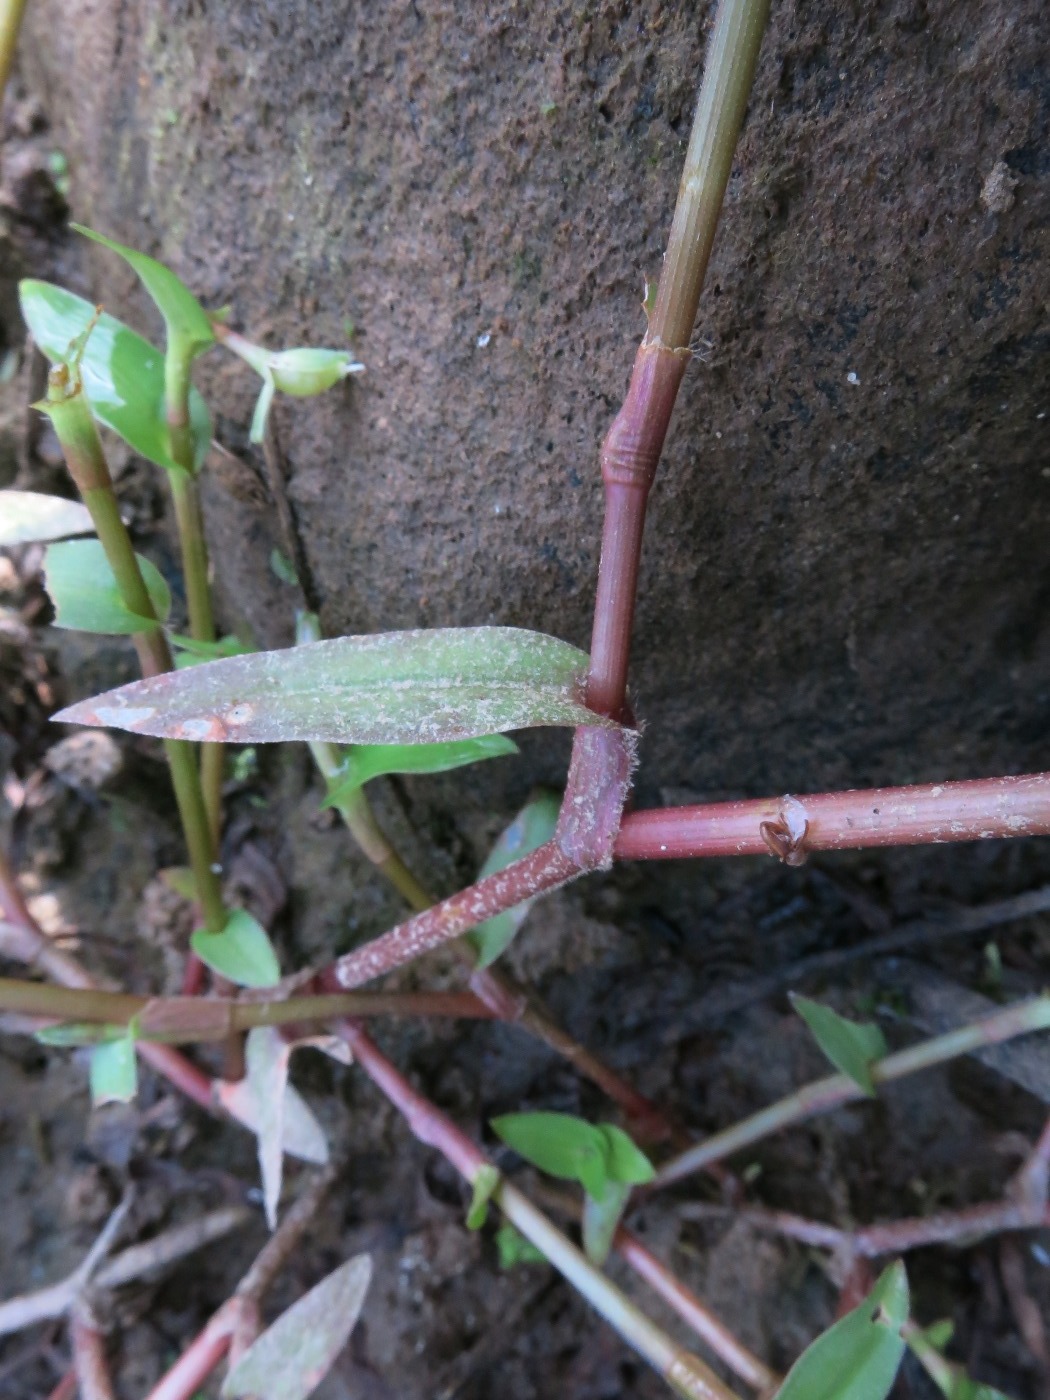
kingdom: Plantae
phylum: Tracheophyta
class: Liliopsida
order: Commelinales
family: Commelinaceae
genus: Murdannia
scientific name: Murdannia keisak
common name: Wartremoving herb
